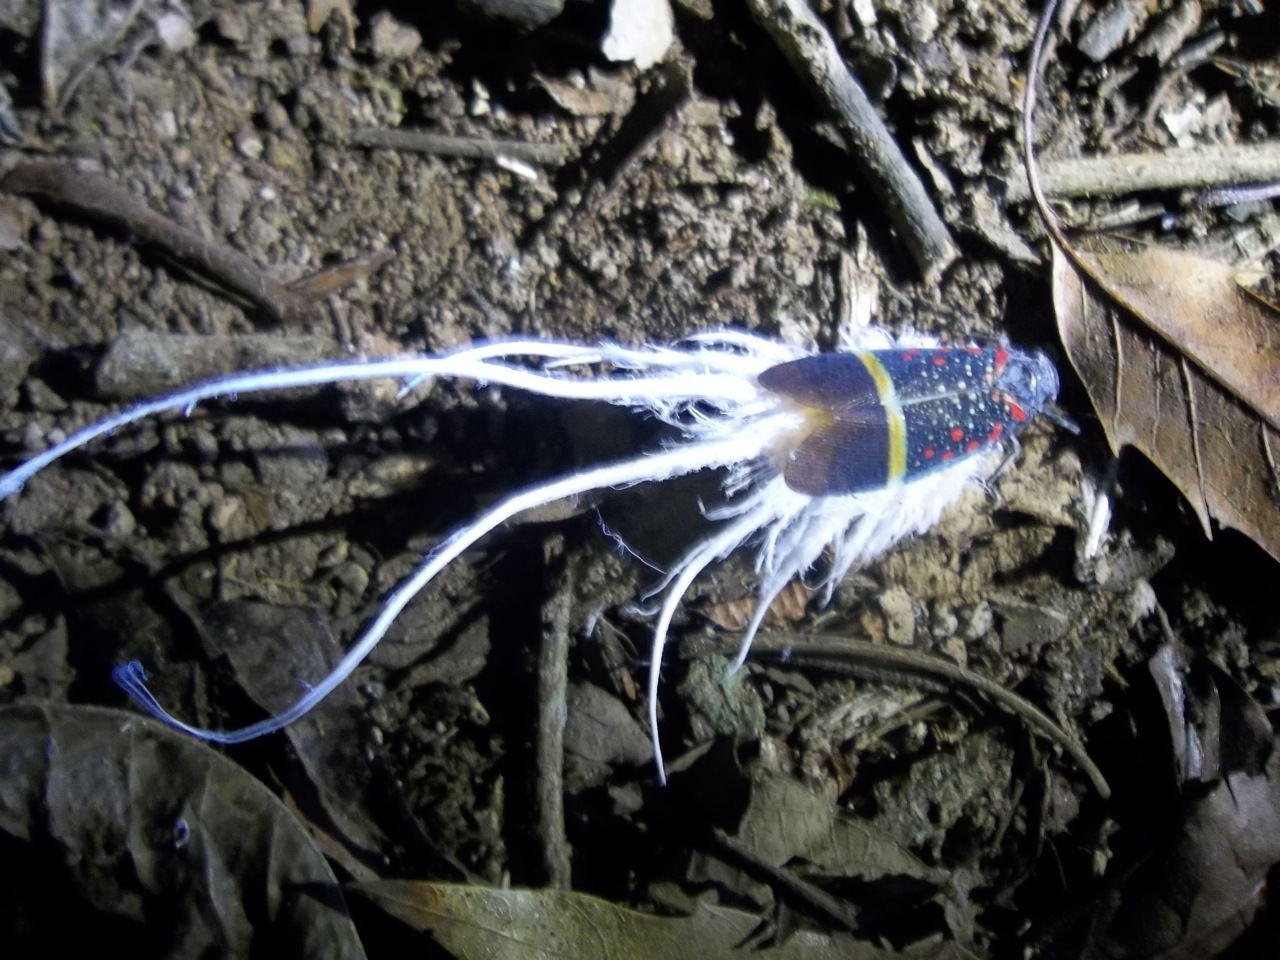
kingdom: Animalia
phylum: Arthropoda
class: Insecta
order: Hemiptera
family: Fulgoridae
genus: Alaruasa
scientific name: Alaruasa aerata
